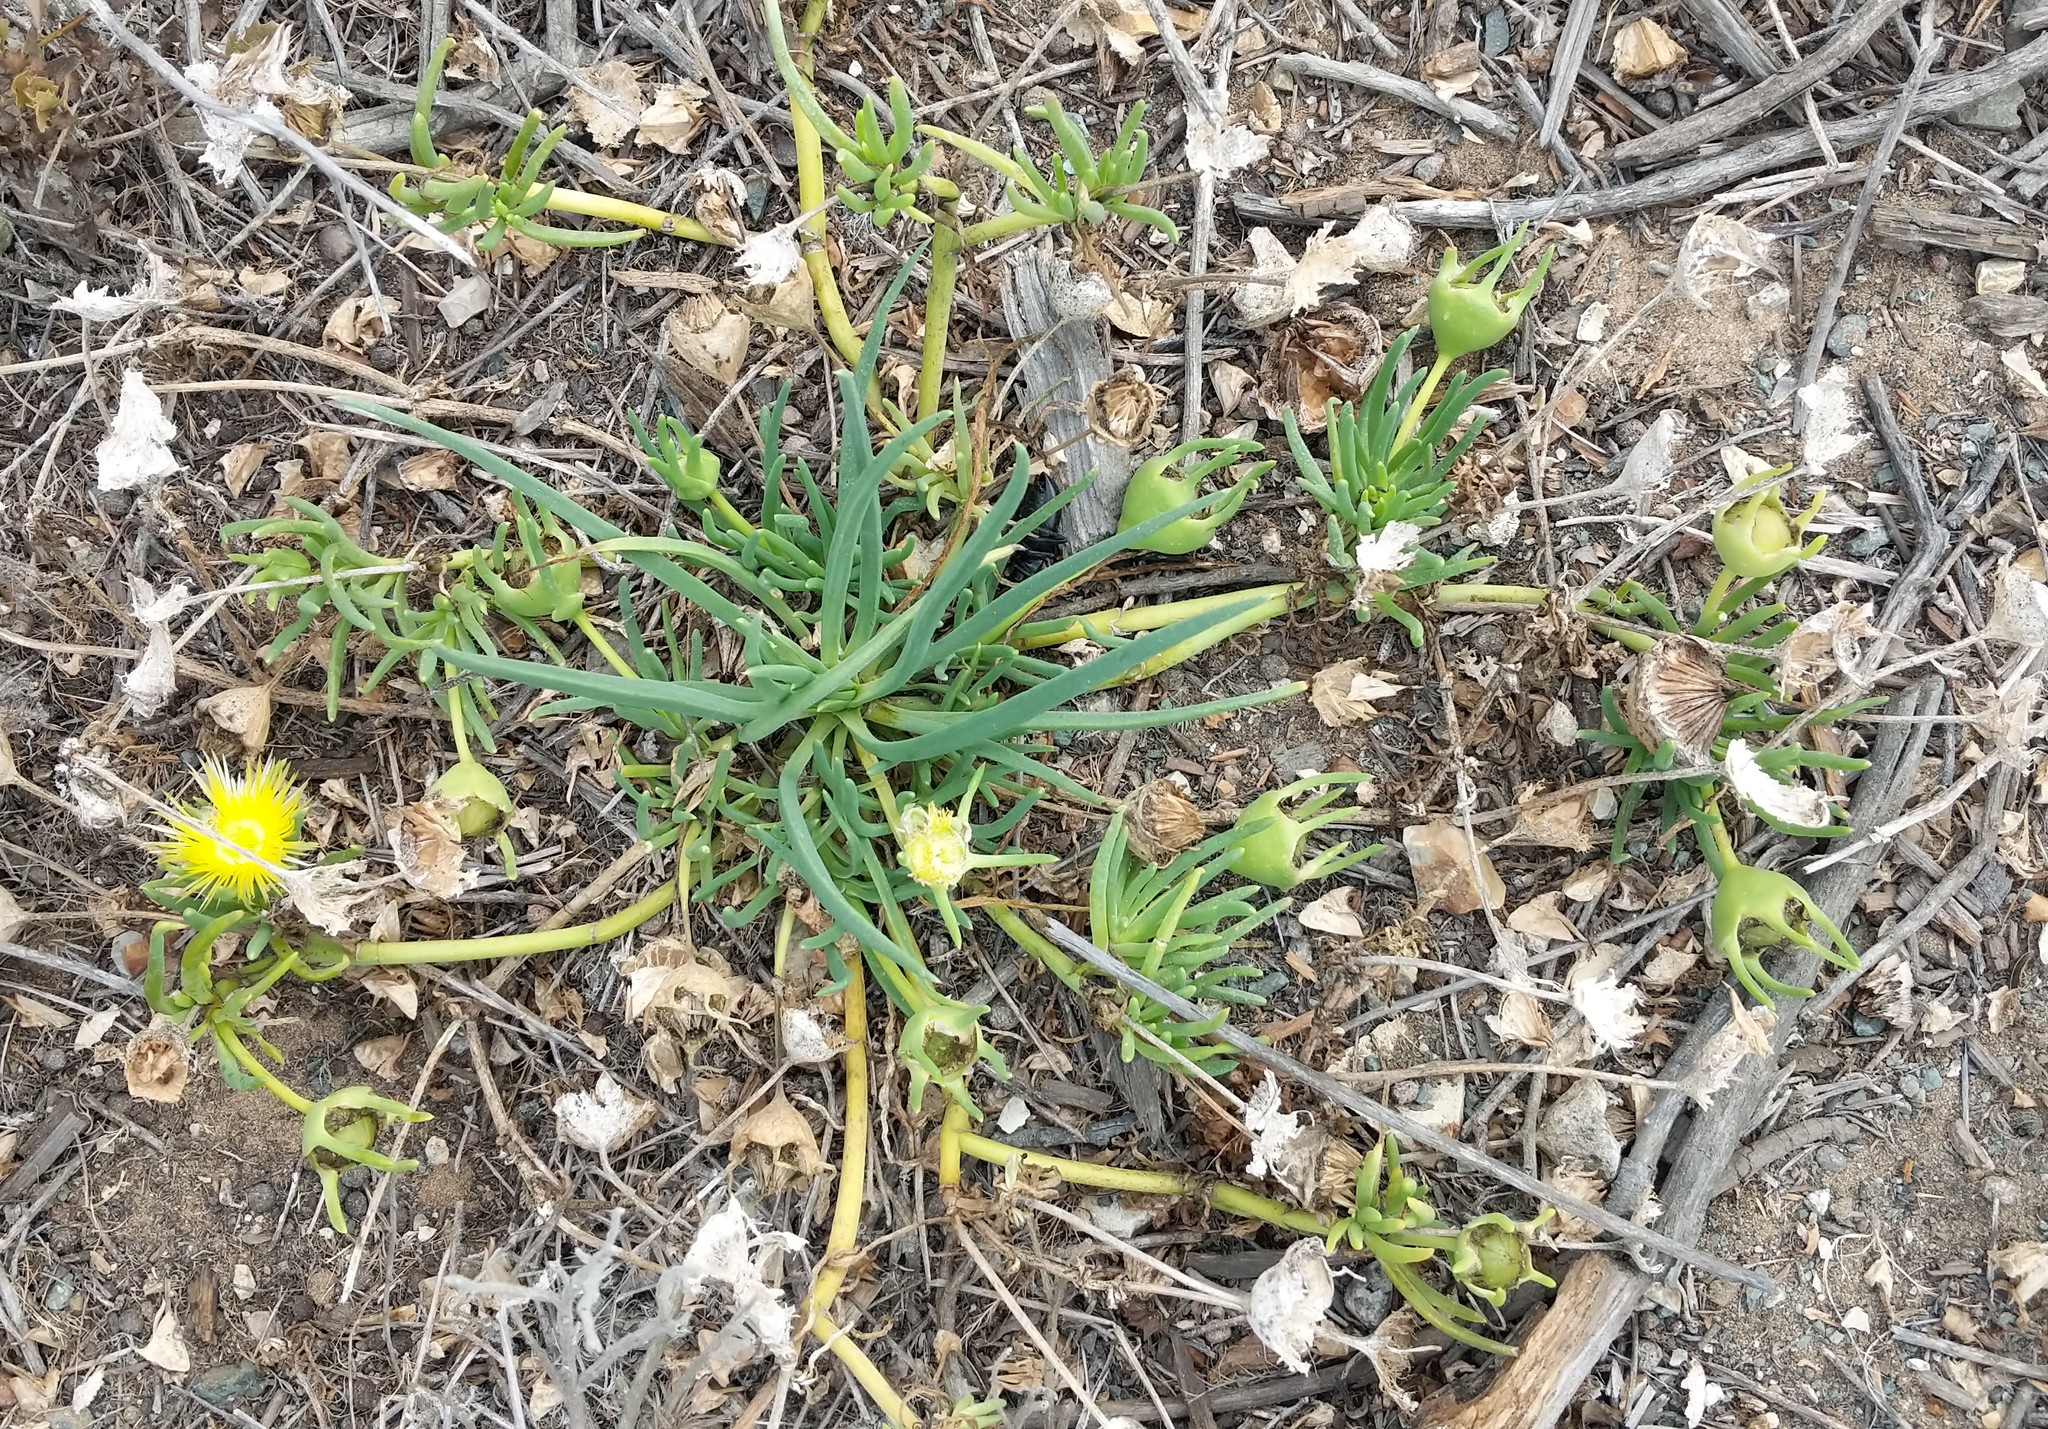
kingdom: Plantae
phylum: Tracheophyta
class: Magnoliopsida
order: Caryophyllales
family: Aizoaceae
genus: Conicosia
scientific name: Conicosia pugioniformis
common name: Narrow-leaved iceplant
